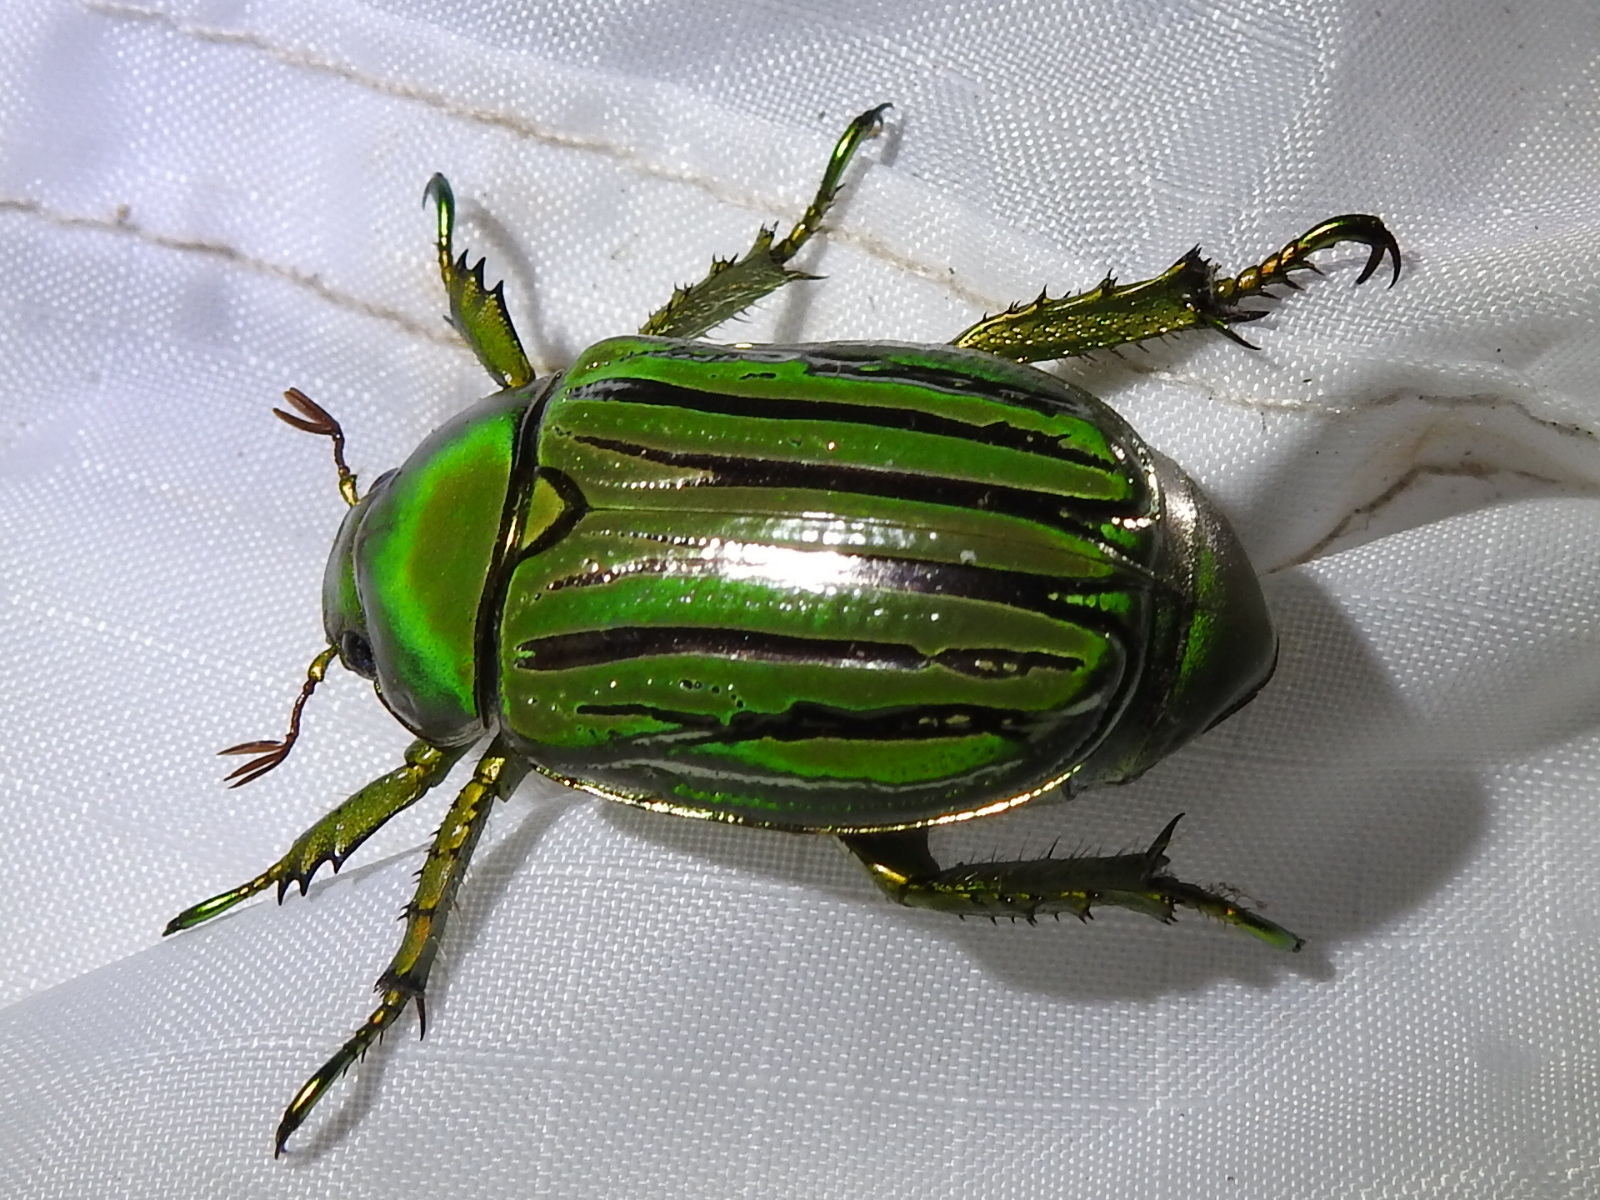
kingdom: Animalia
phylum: Arthropoda
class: Insecta
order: Coleoptera
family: Scarabaeidae
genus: Chrysina
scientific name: Chrysina gloriosa
